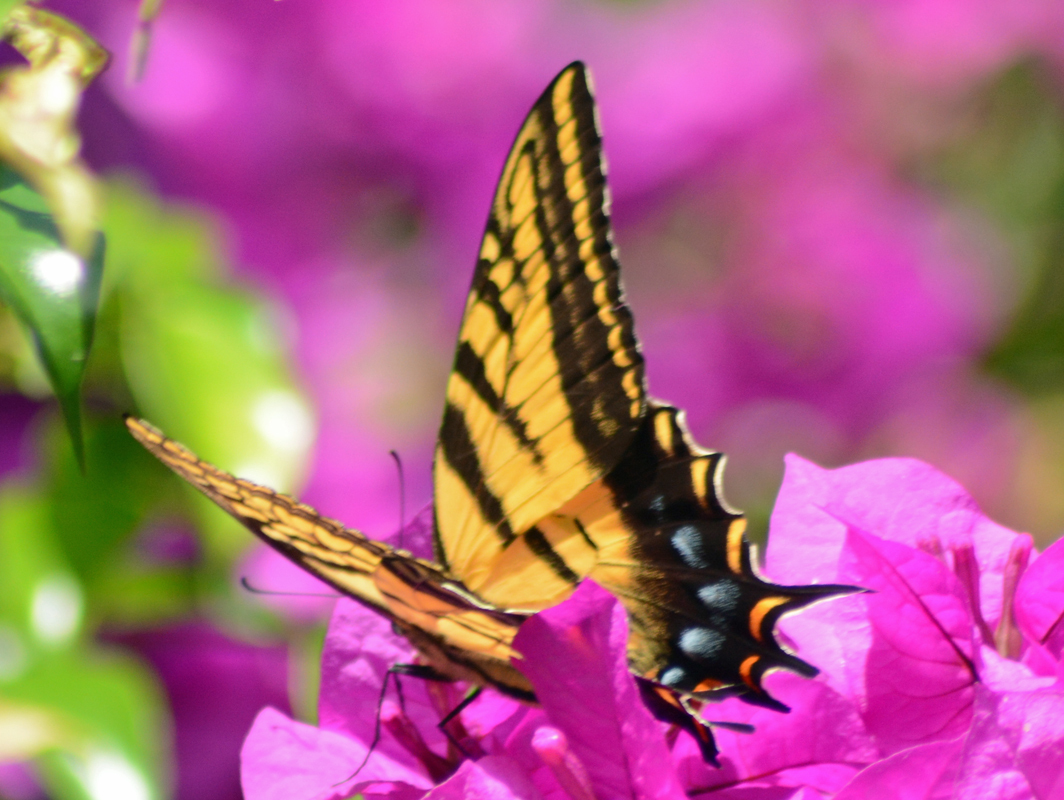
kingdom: Animalia
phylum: Arthropoda
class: Insecta
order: Lepidoptera
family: Papilionidae
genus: Papilio
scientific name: Papilio multicaudata
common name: Two-tailed tiger swallowtail
